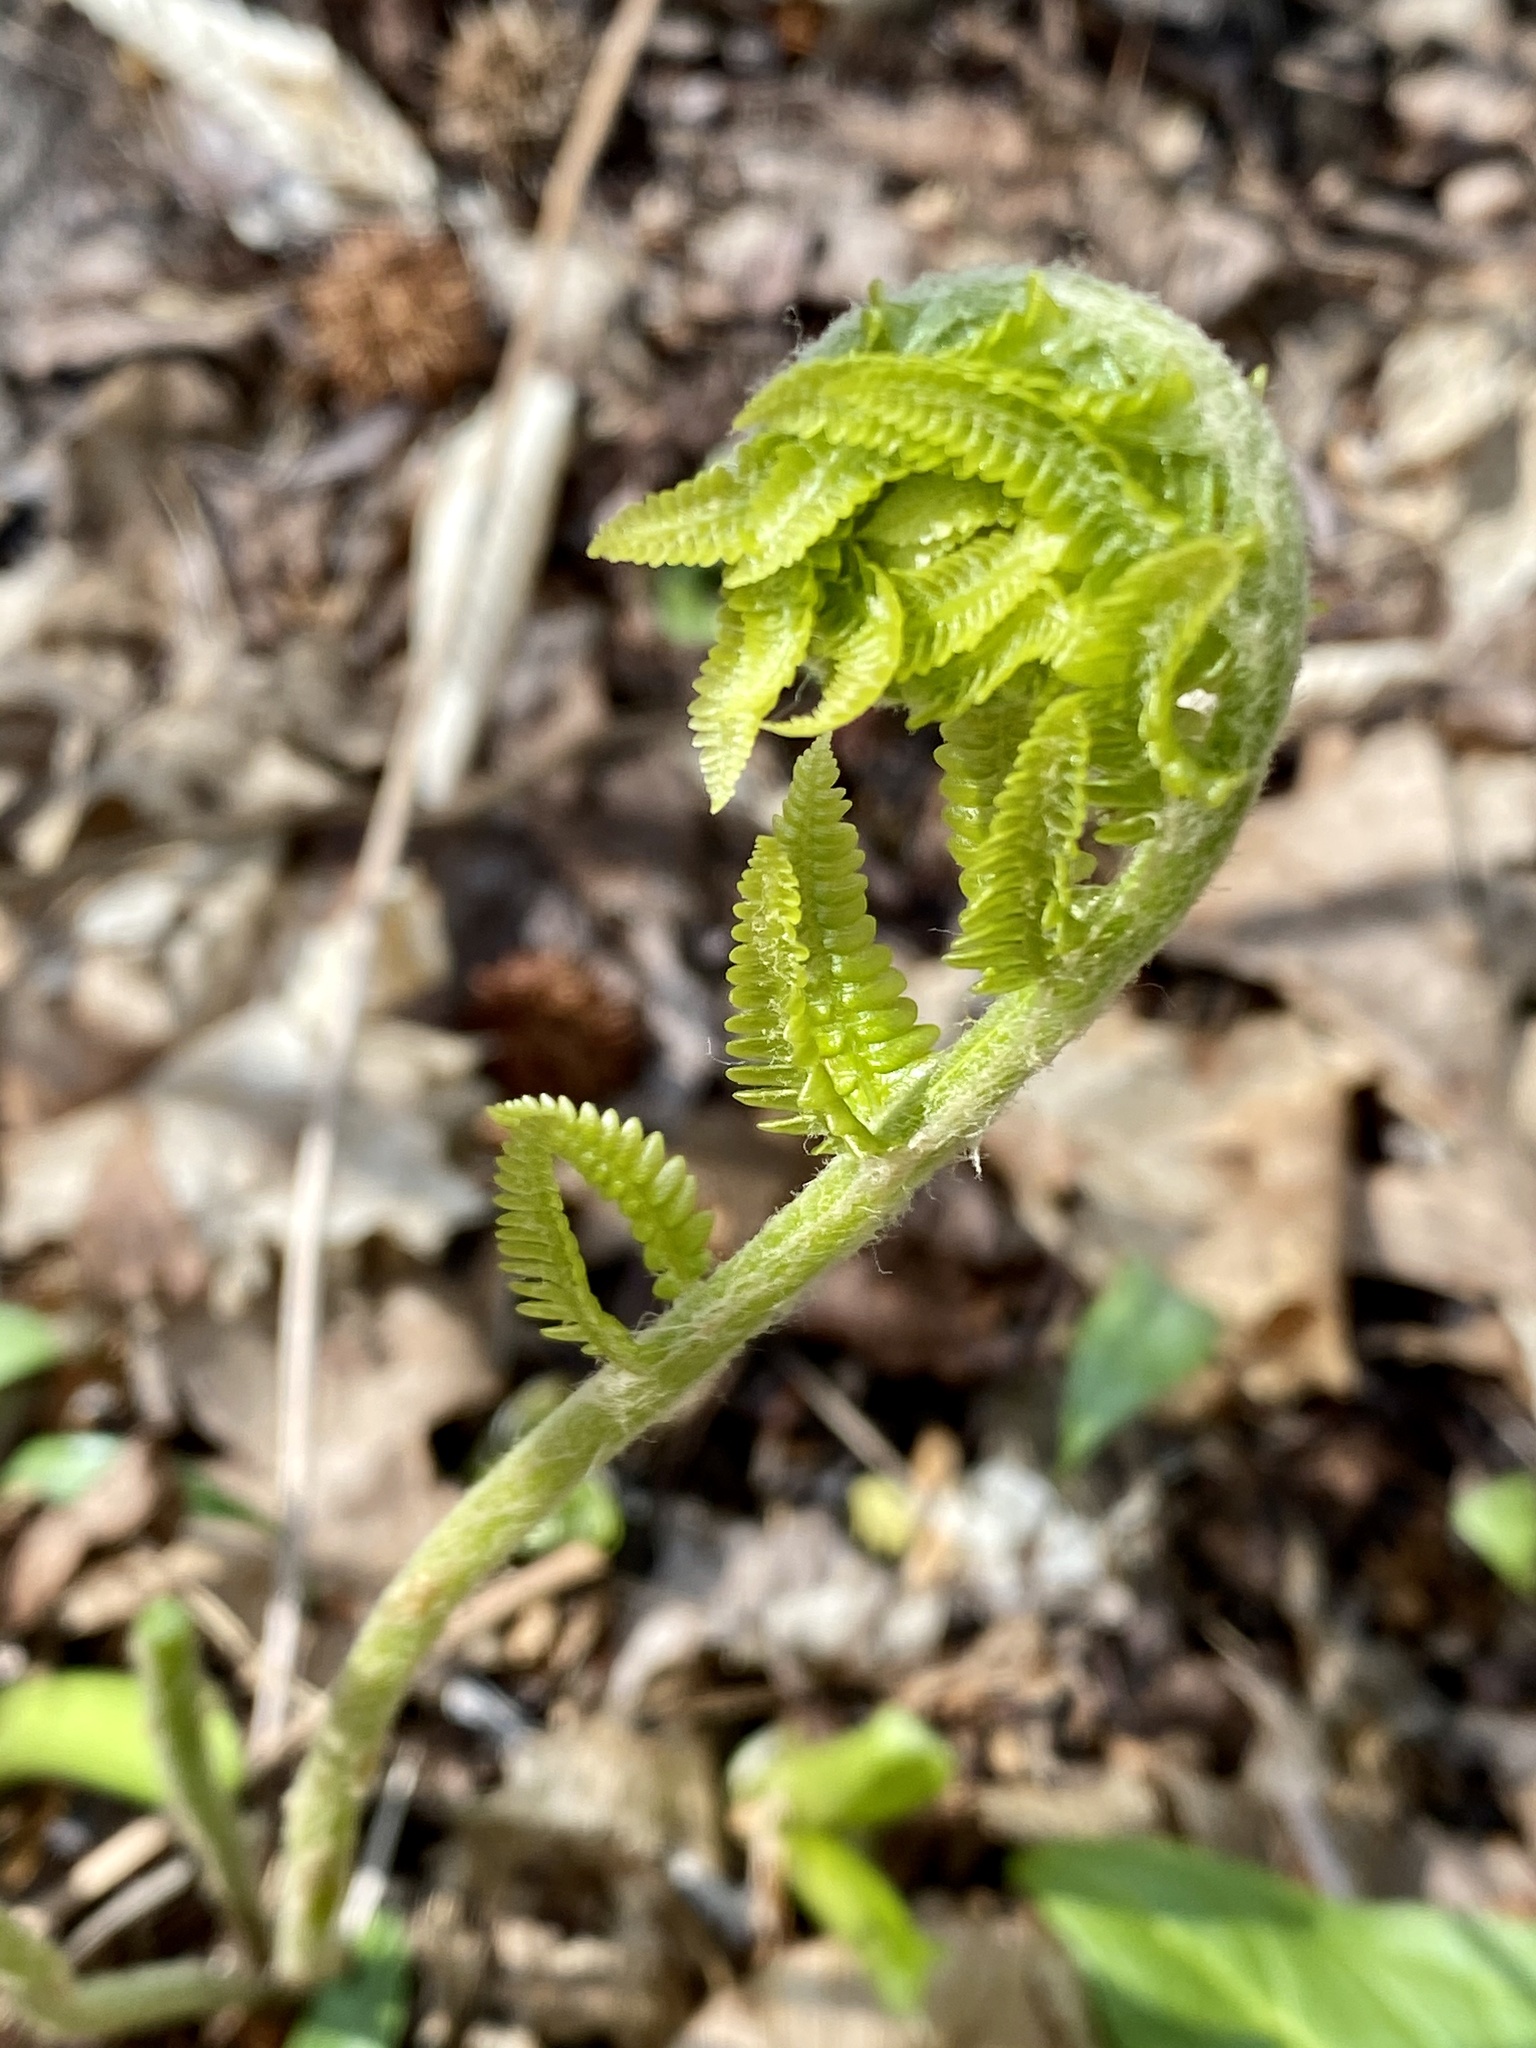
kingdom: Plantae
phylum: Tracheophyta
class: Polypodiopsida
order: Osmundales
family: Osmundaceae
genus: Osmundastrum
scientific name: Osmundastrum cinnamomeum
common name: Cinnamon fern
